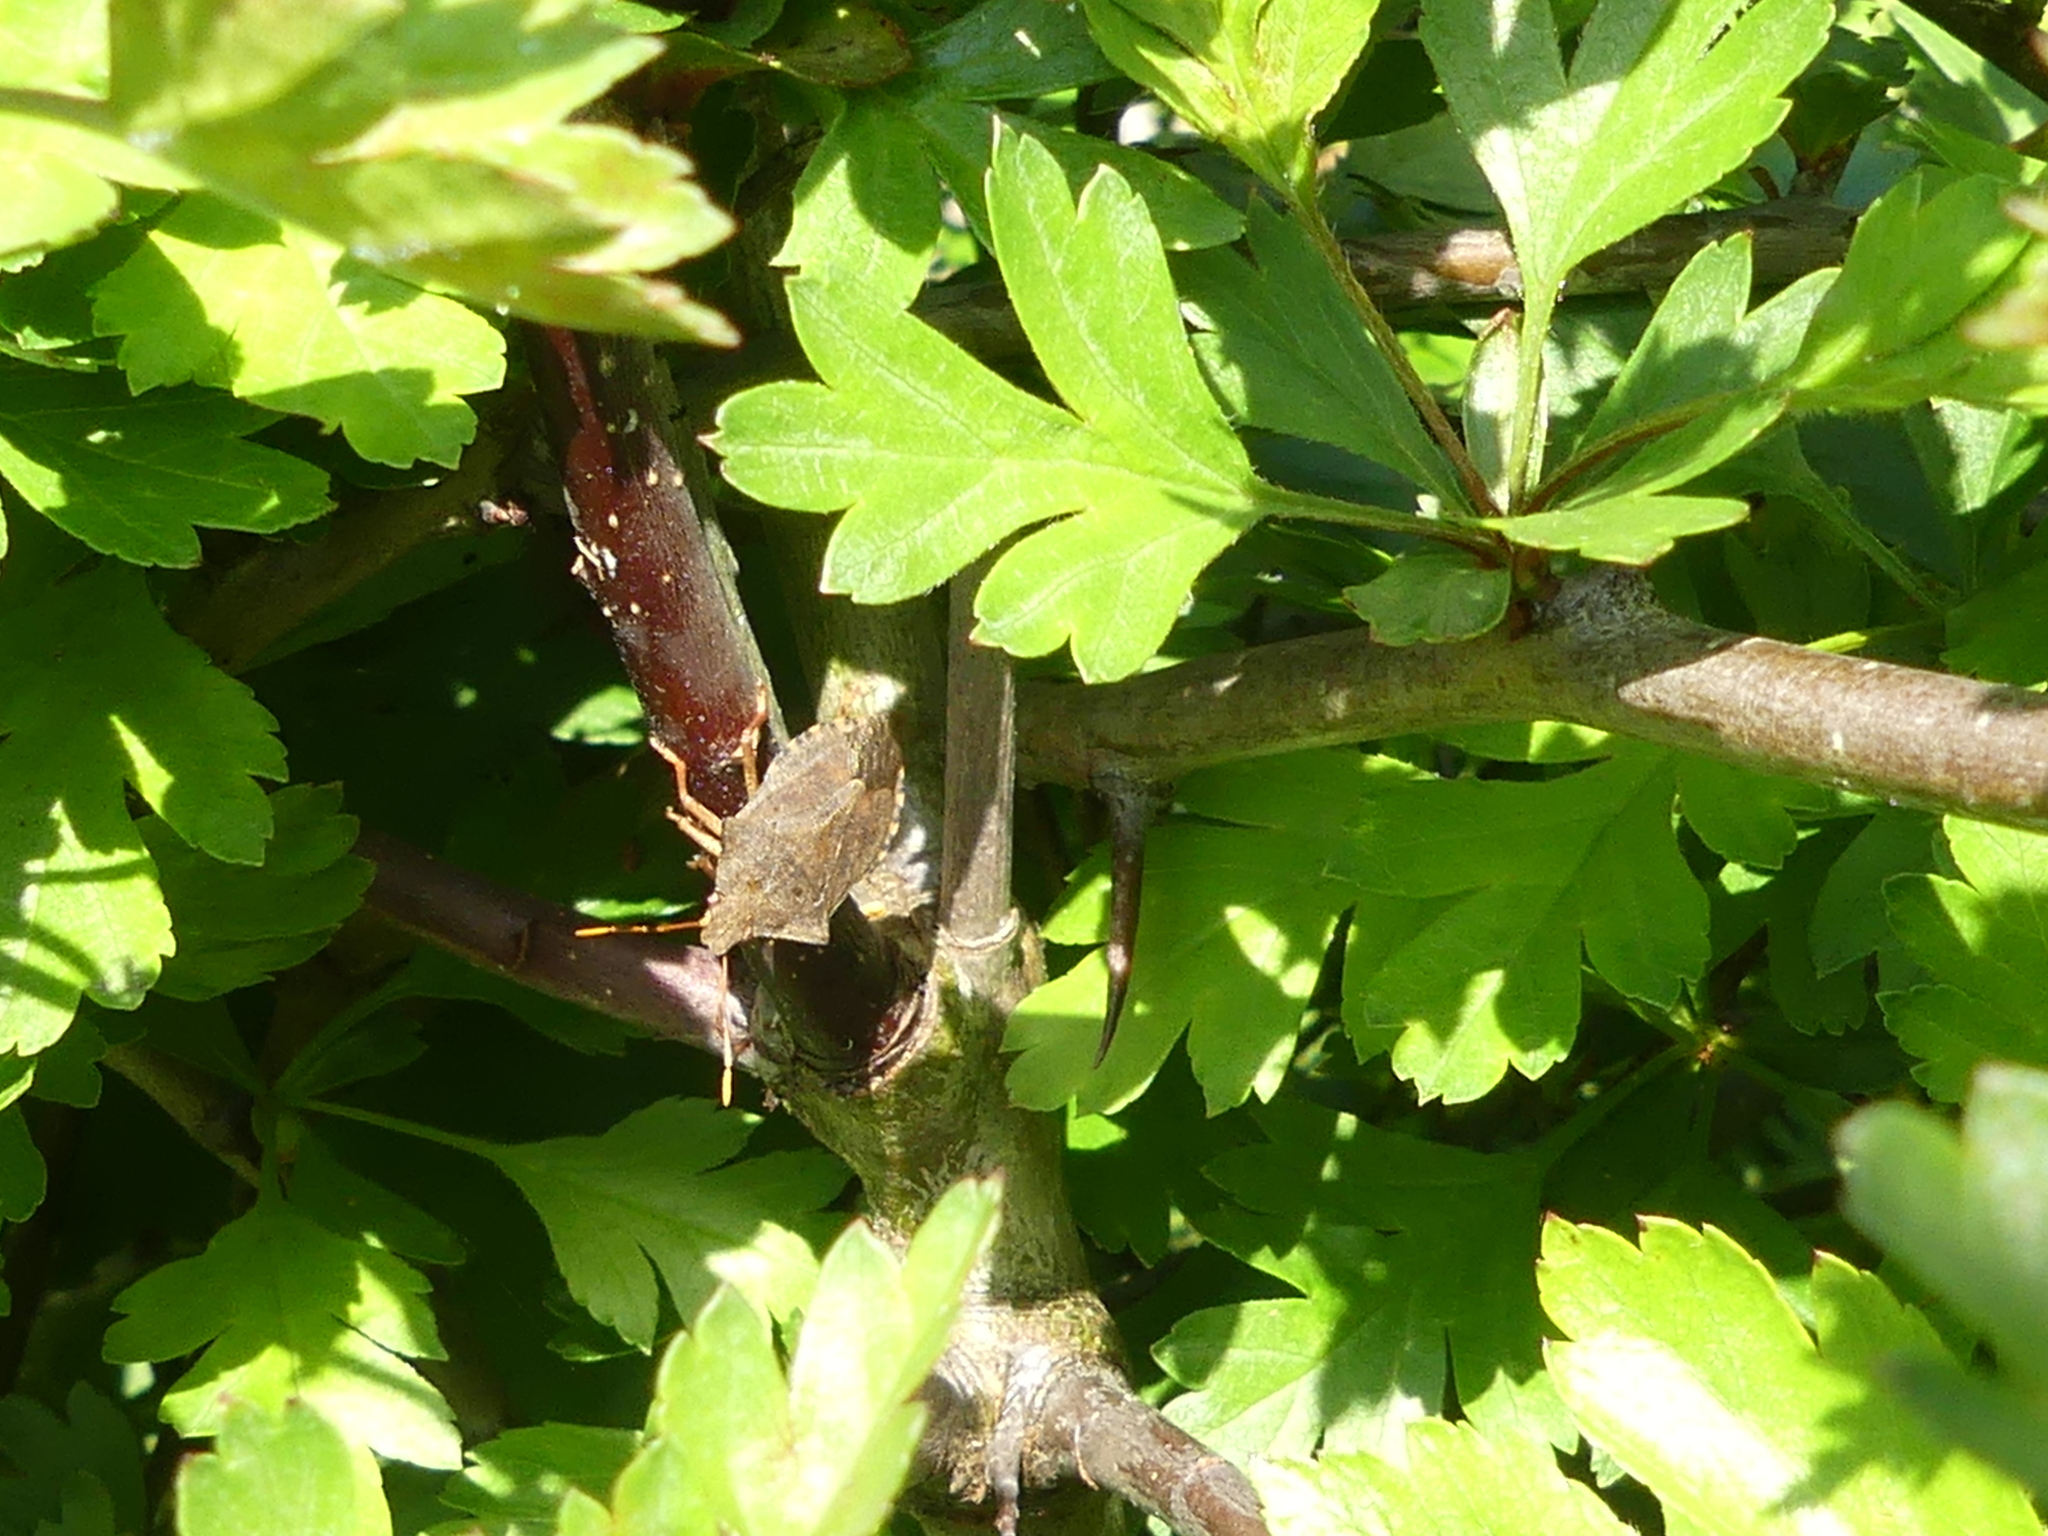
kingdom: Animalia
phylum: Arthropoda
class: Insecta
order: Hemiptera
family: Pentatomidae
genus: Arma
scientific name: Arma custos
